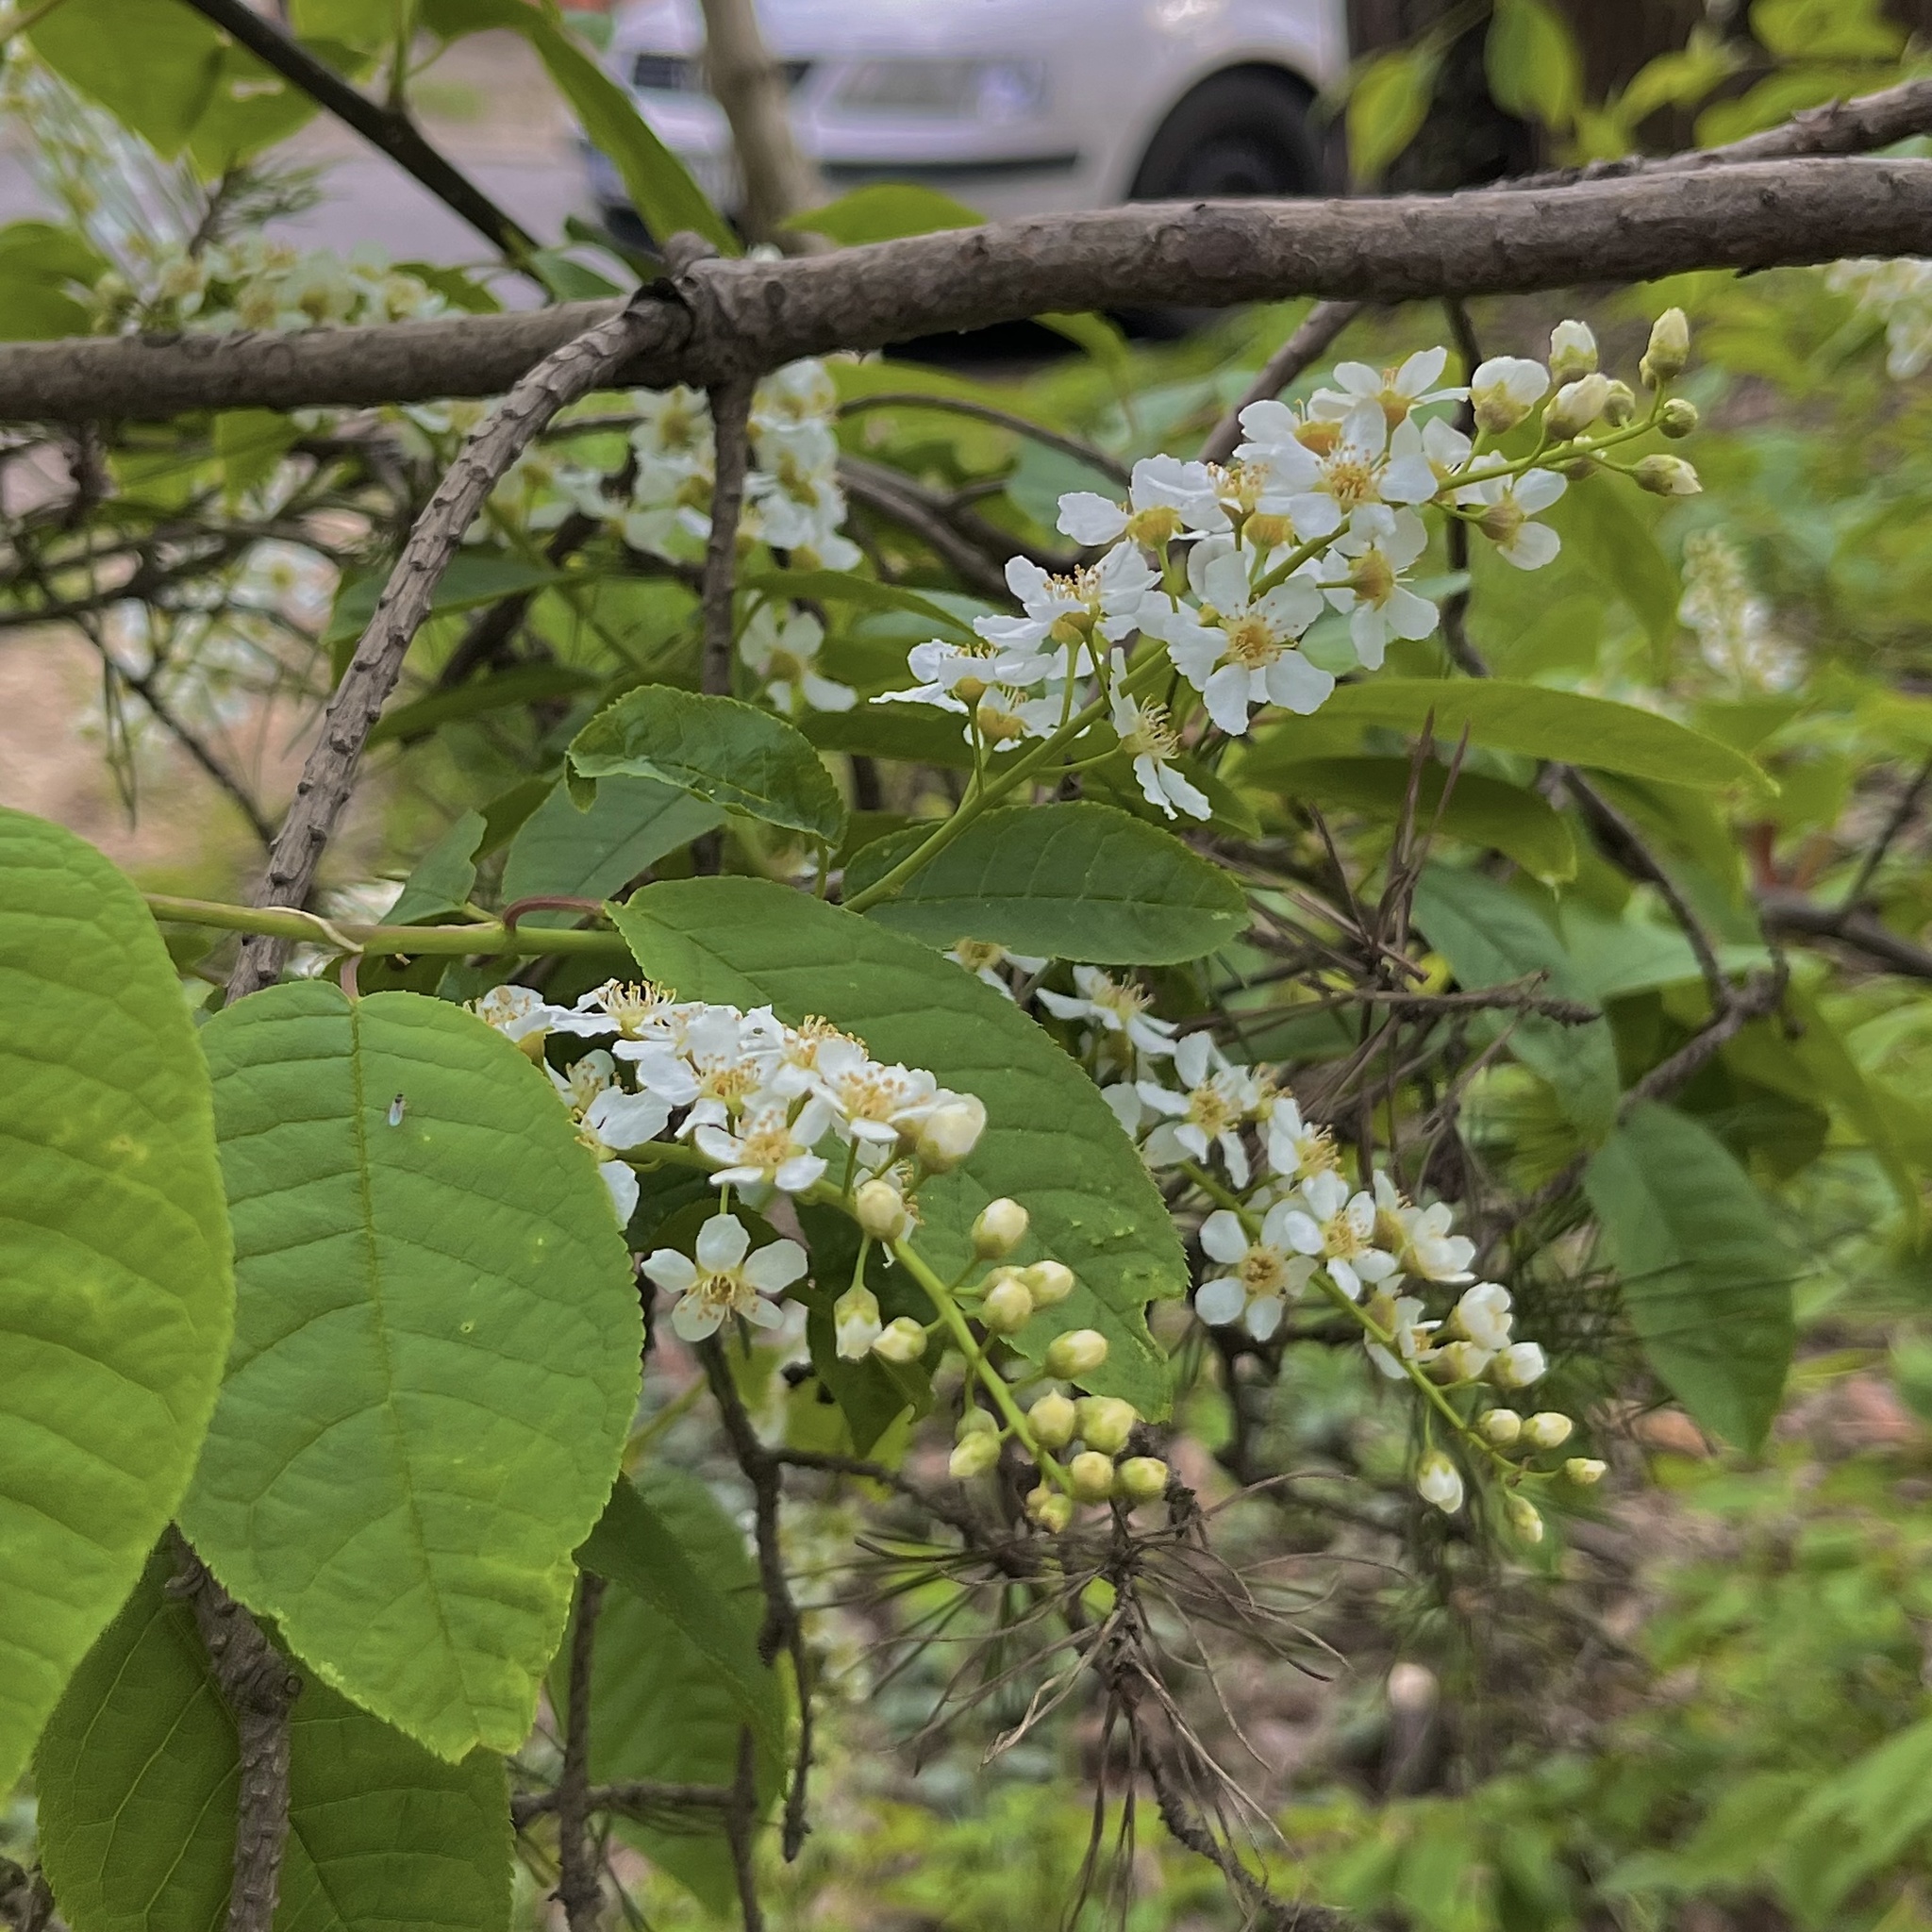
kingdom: Plantae
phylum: Tracheophyta
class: Magnoliopsida
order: Rosales
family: Rosaceae
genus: Prunus
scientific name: Prunus padus
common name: Bird cherry
